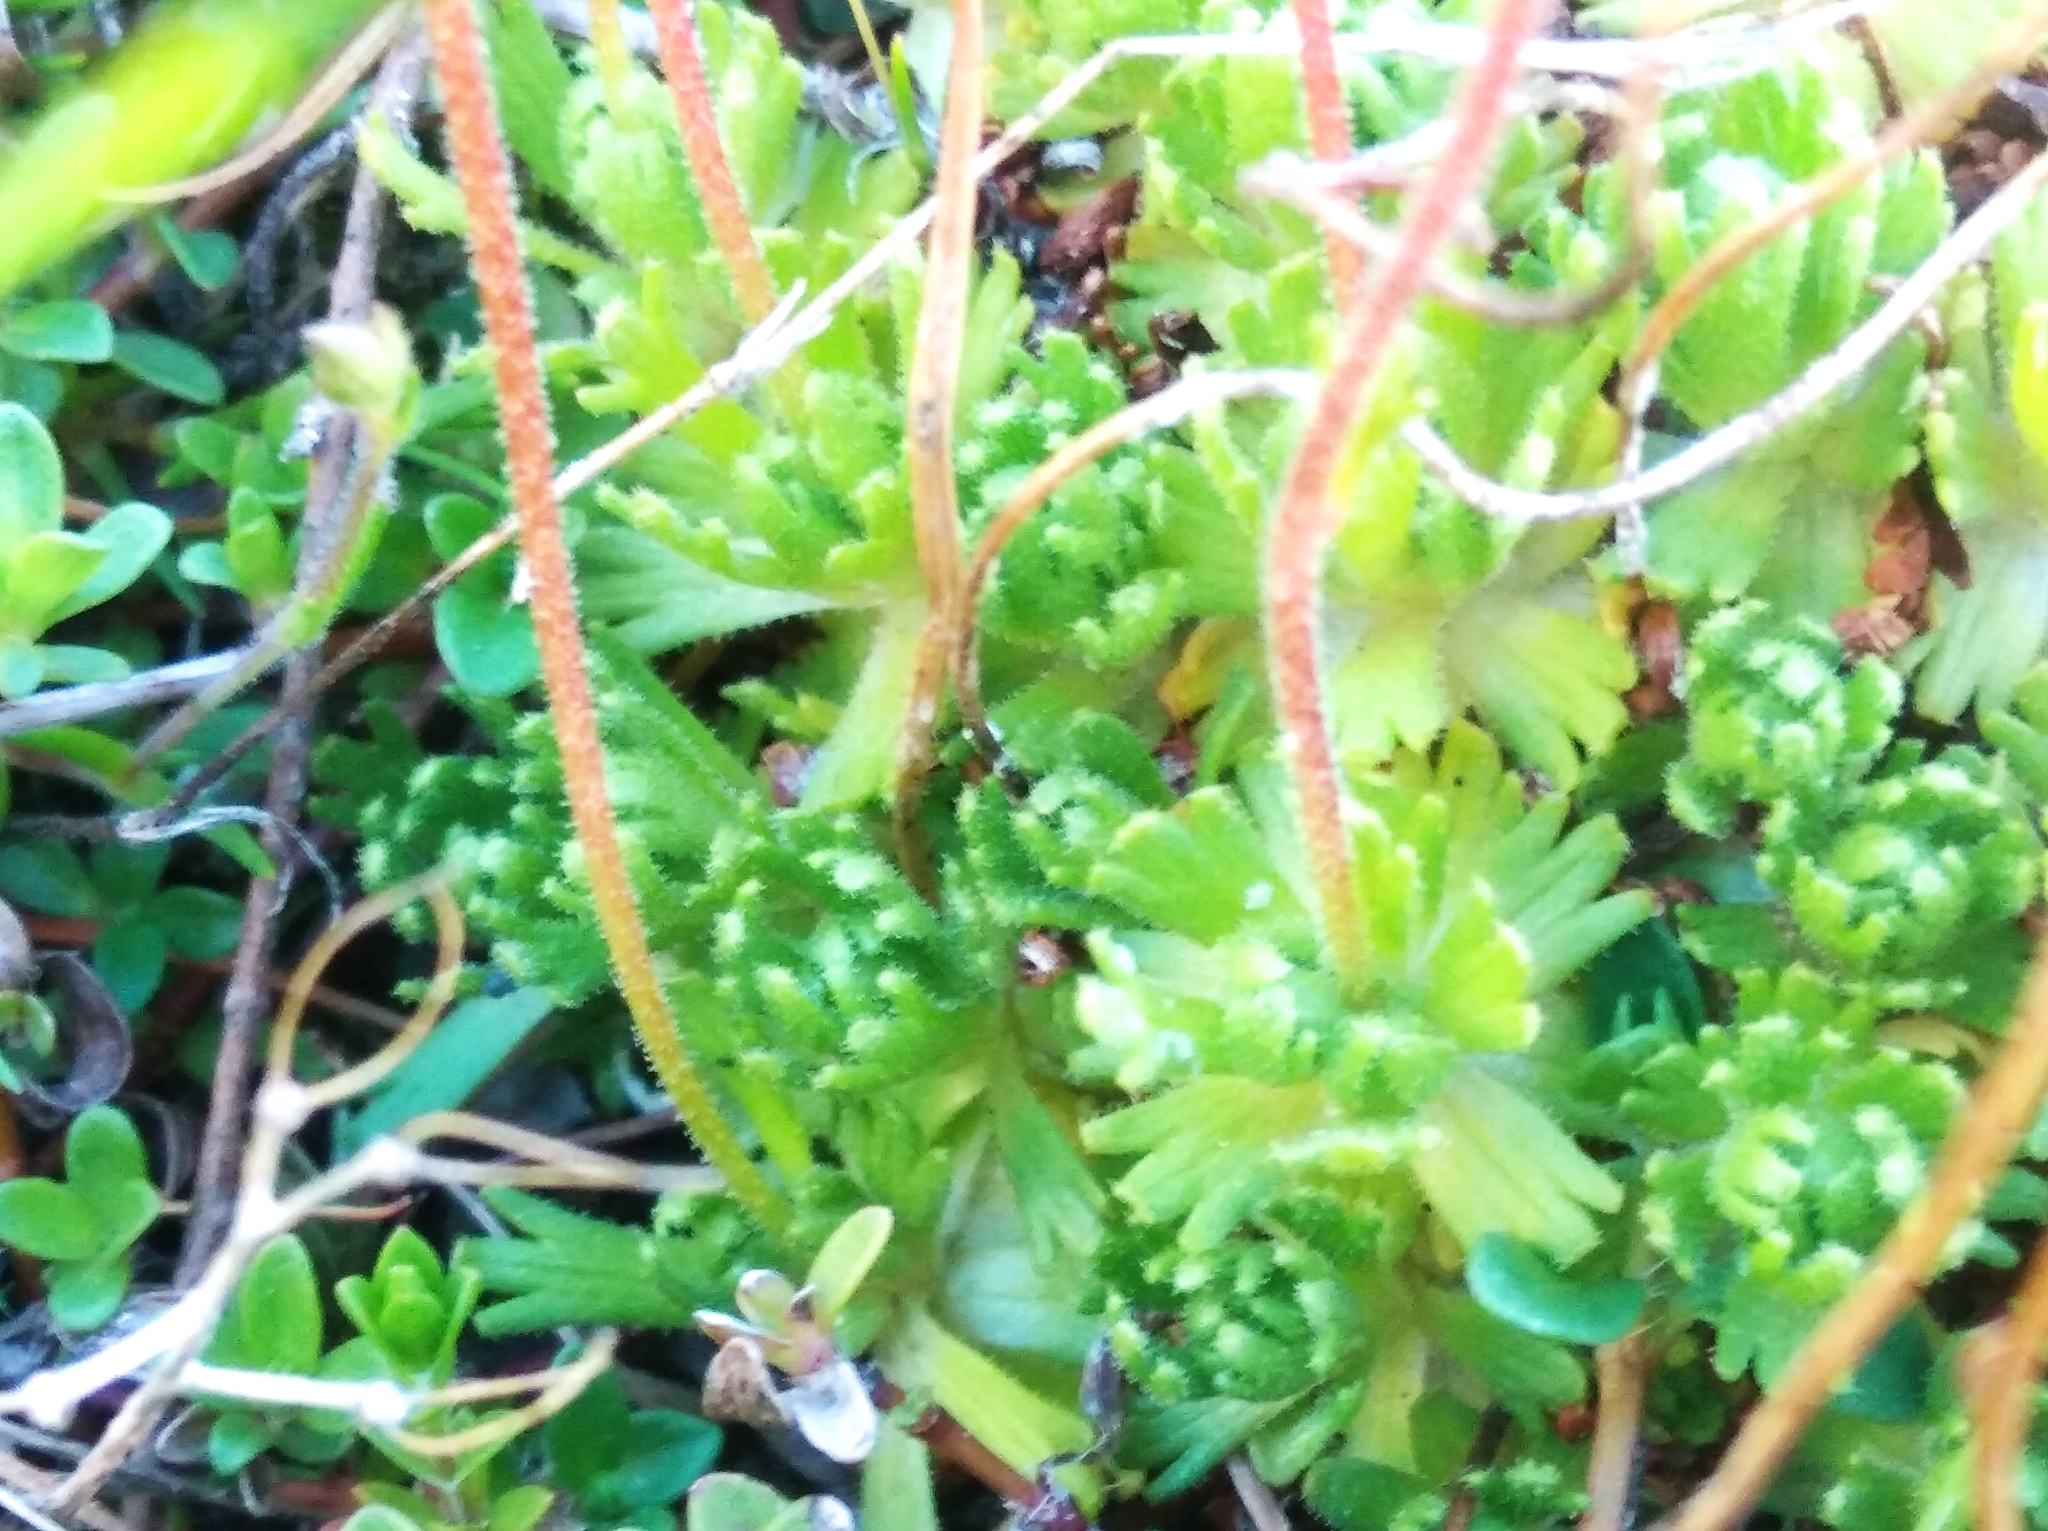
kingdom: Plantae
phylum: Tracheophyta
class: Magnoliopsida
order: Saxifragales
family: Saxifragaceae
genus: Saxifraga
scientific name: Saxifraga exarata
